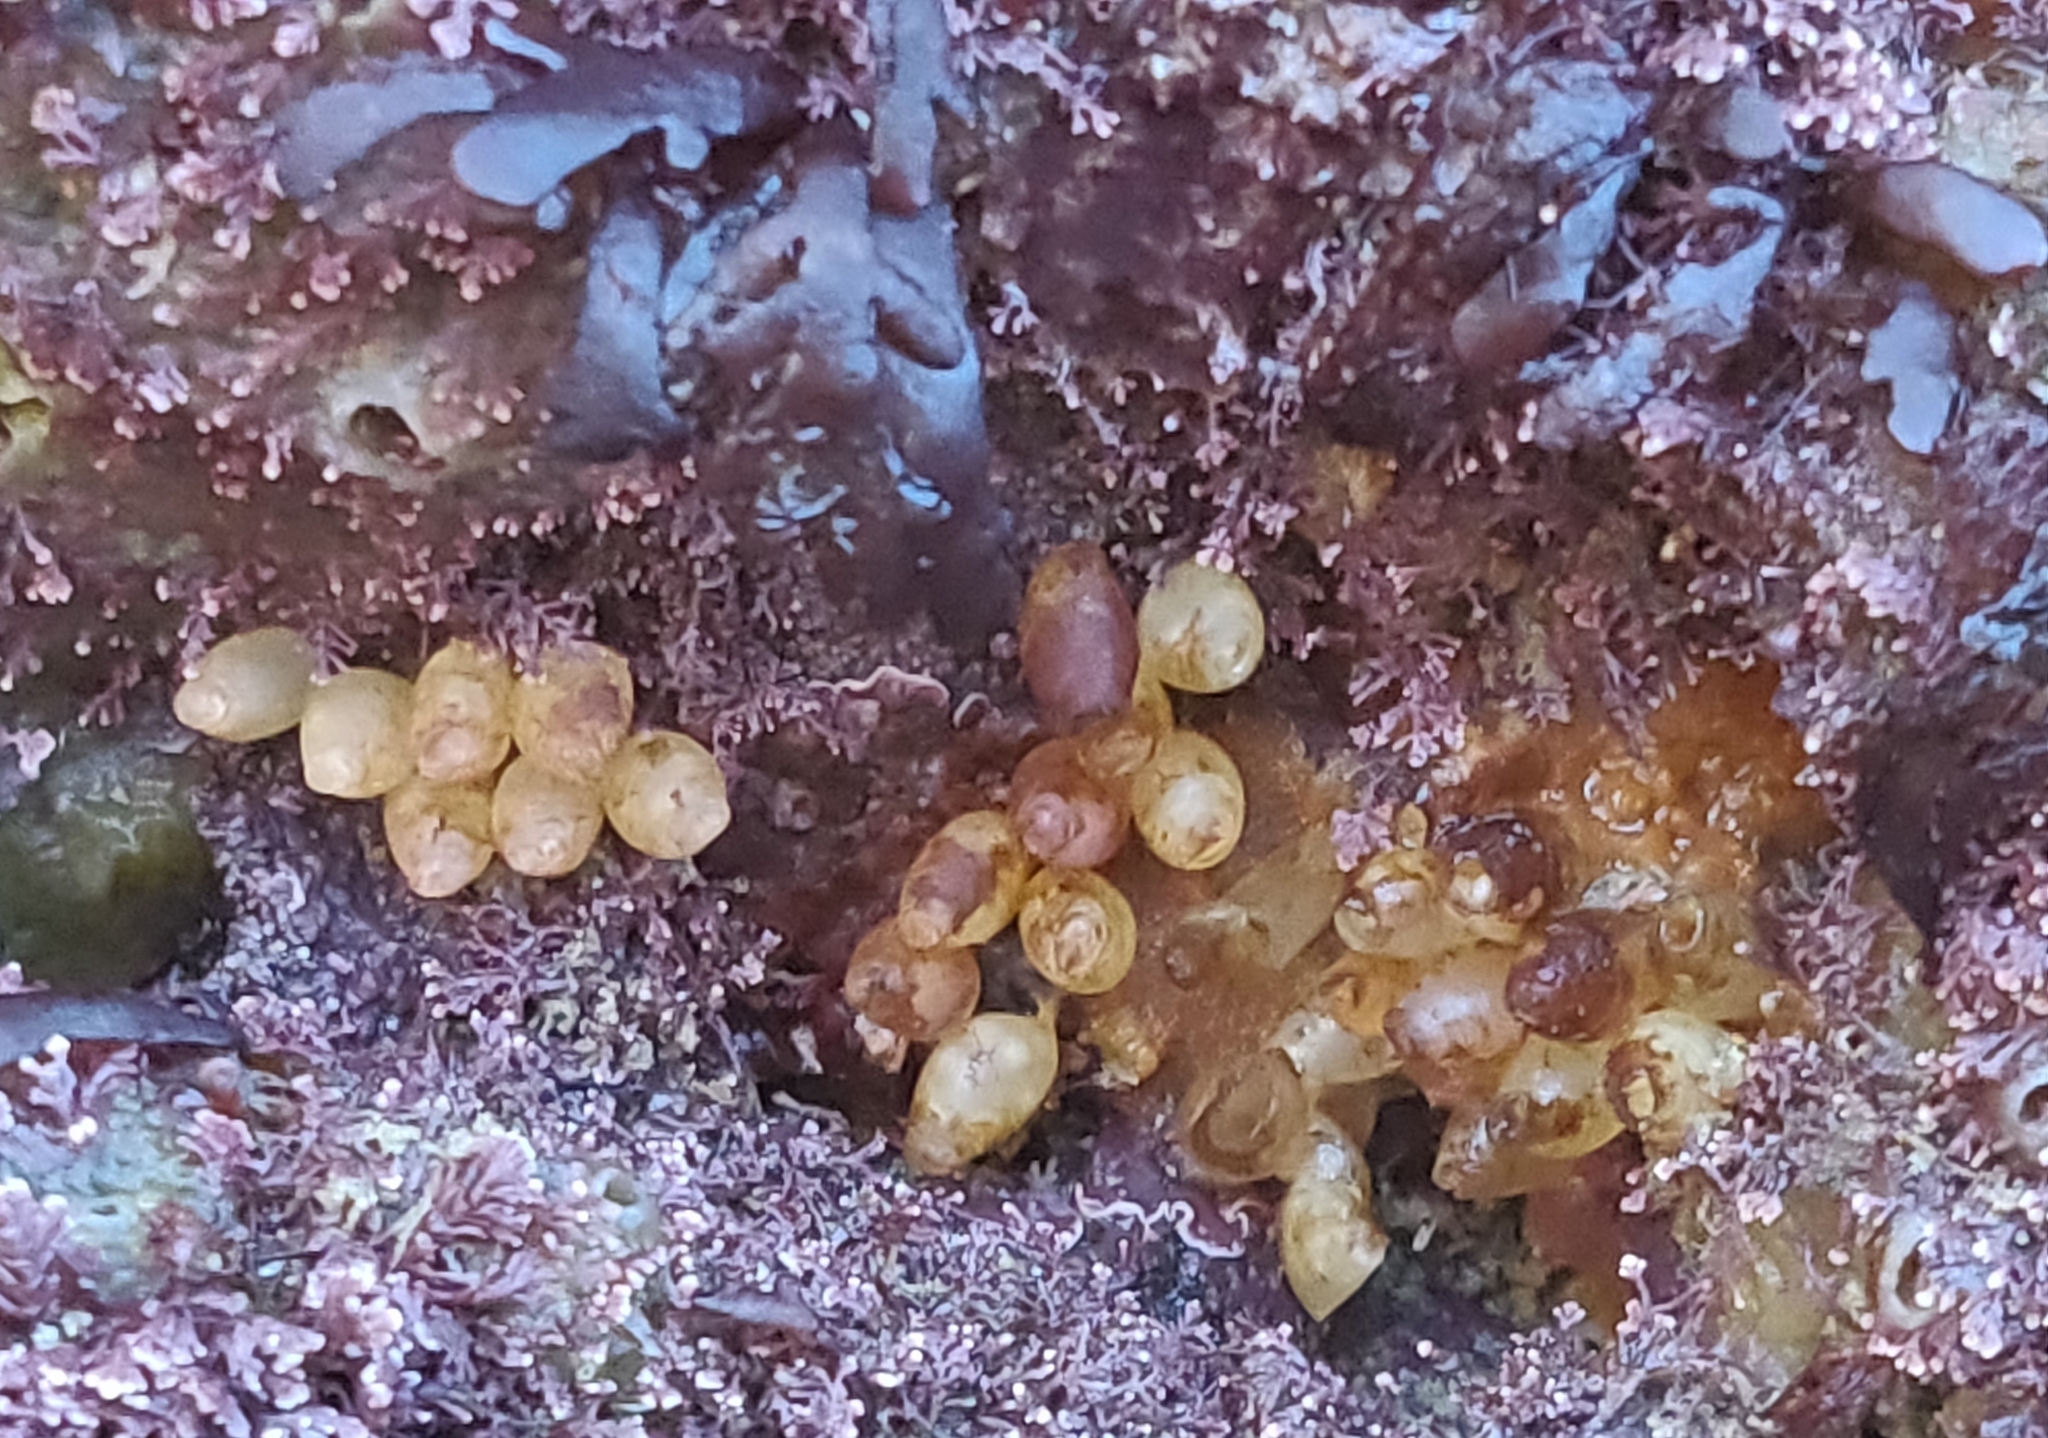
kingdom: Animalia
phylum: Mollusca
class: Gastropoda
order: Neogastropoda
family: Muricidae
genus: Nucella
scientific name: Nucella lapillus
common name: Dog whelk
